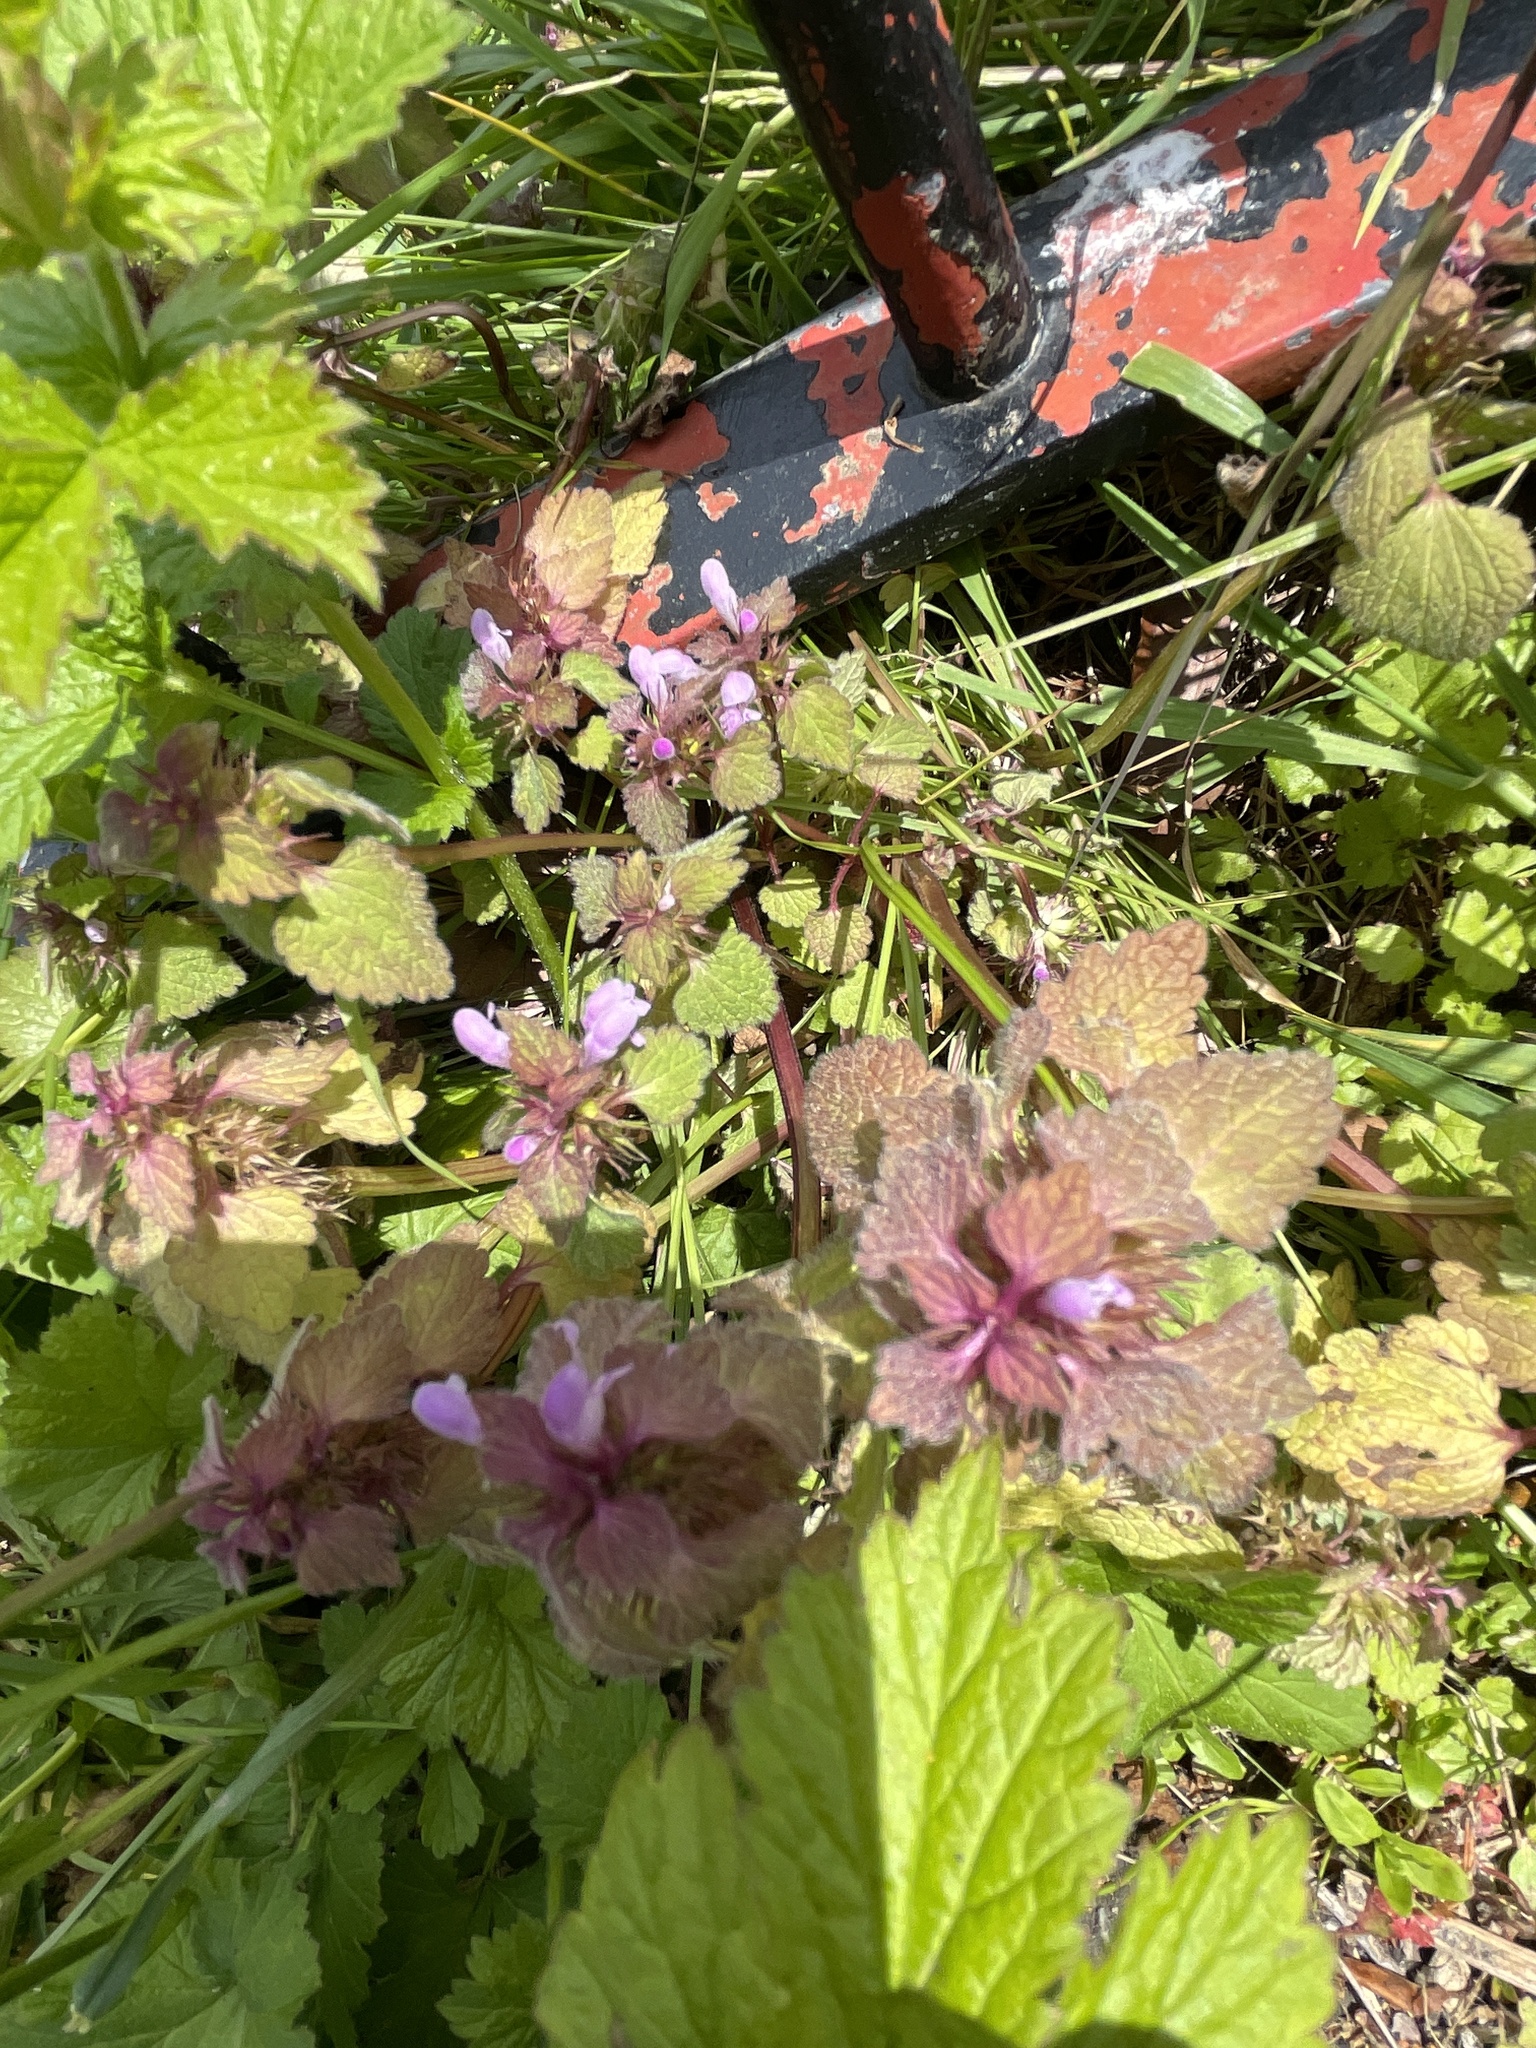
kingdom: Plantae
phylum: Tracheophyta
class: Magnoliopsida
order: Lamiales
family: Lamiaceae
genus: Lamium
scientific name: Lamium purpureum
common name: Red dead-nettle
